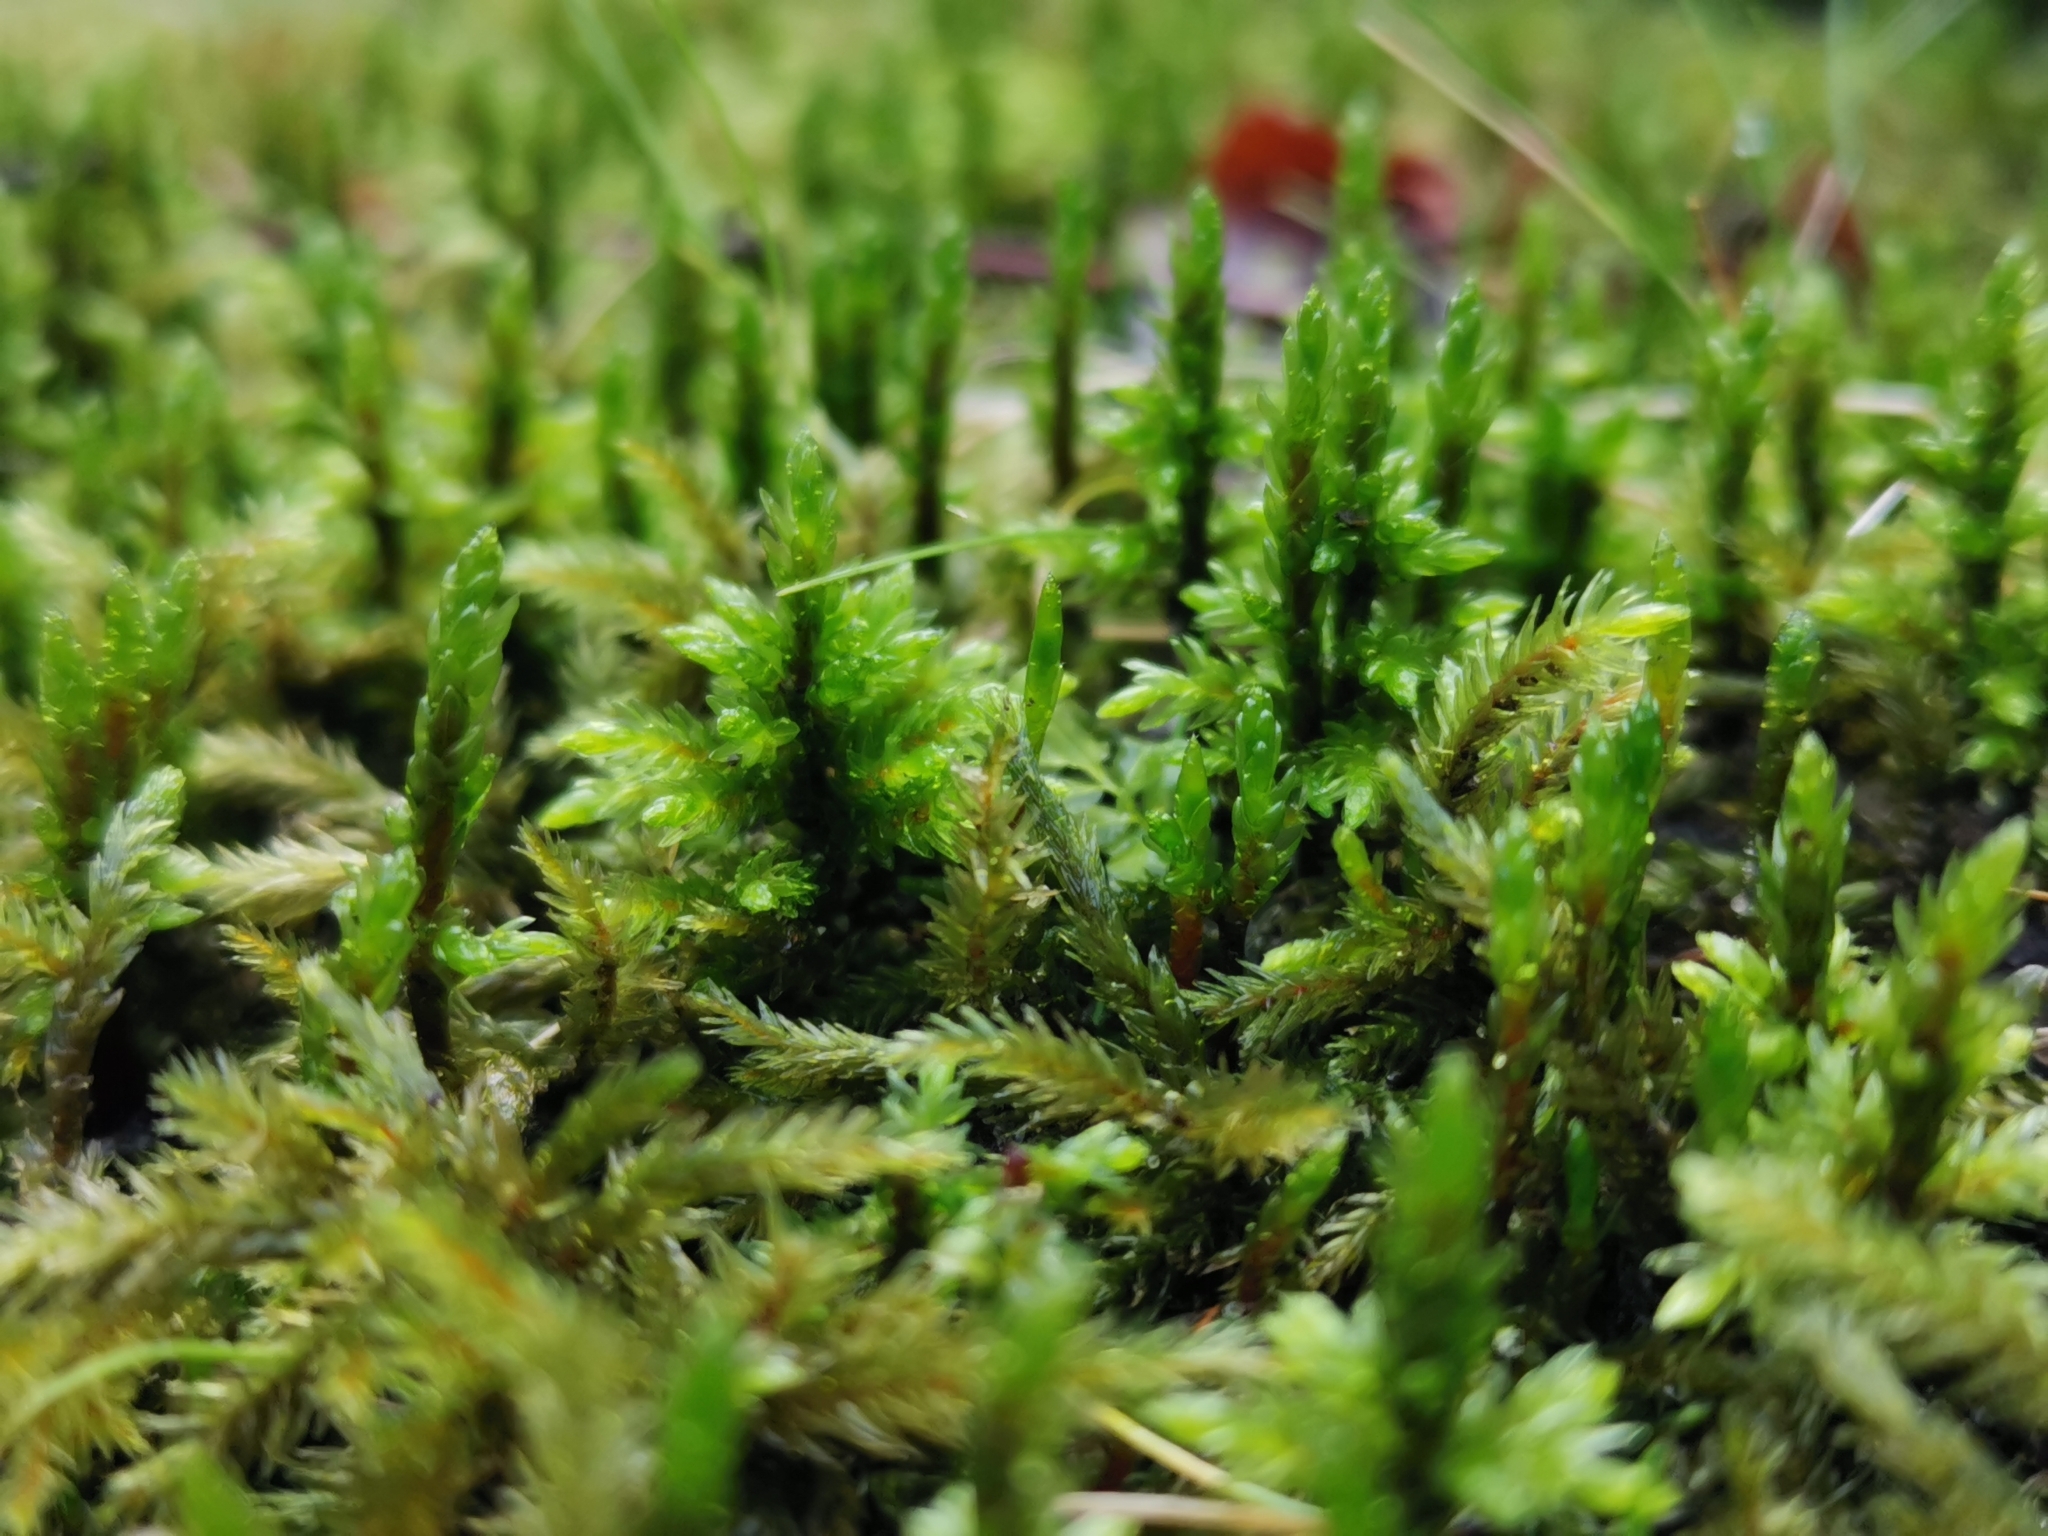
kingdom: Plantae
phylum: Bryophyta
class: Bryopsida
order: Hypnales
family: Climaciaceae
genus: Climacium
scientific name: Climacium dendroides
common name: Northern tree moss
